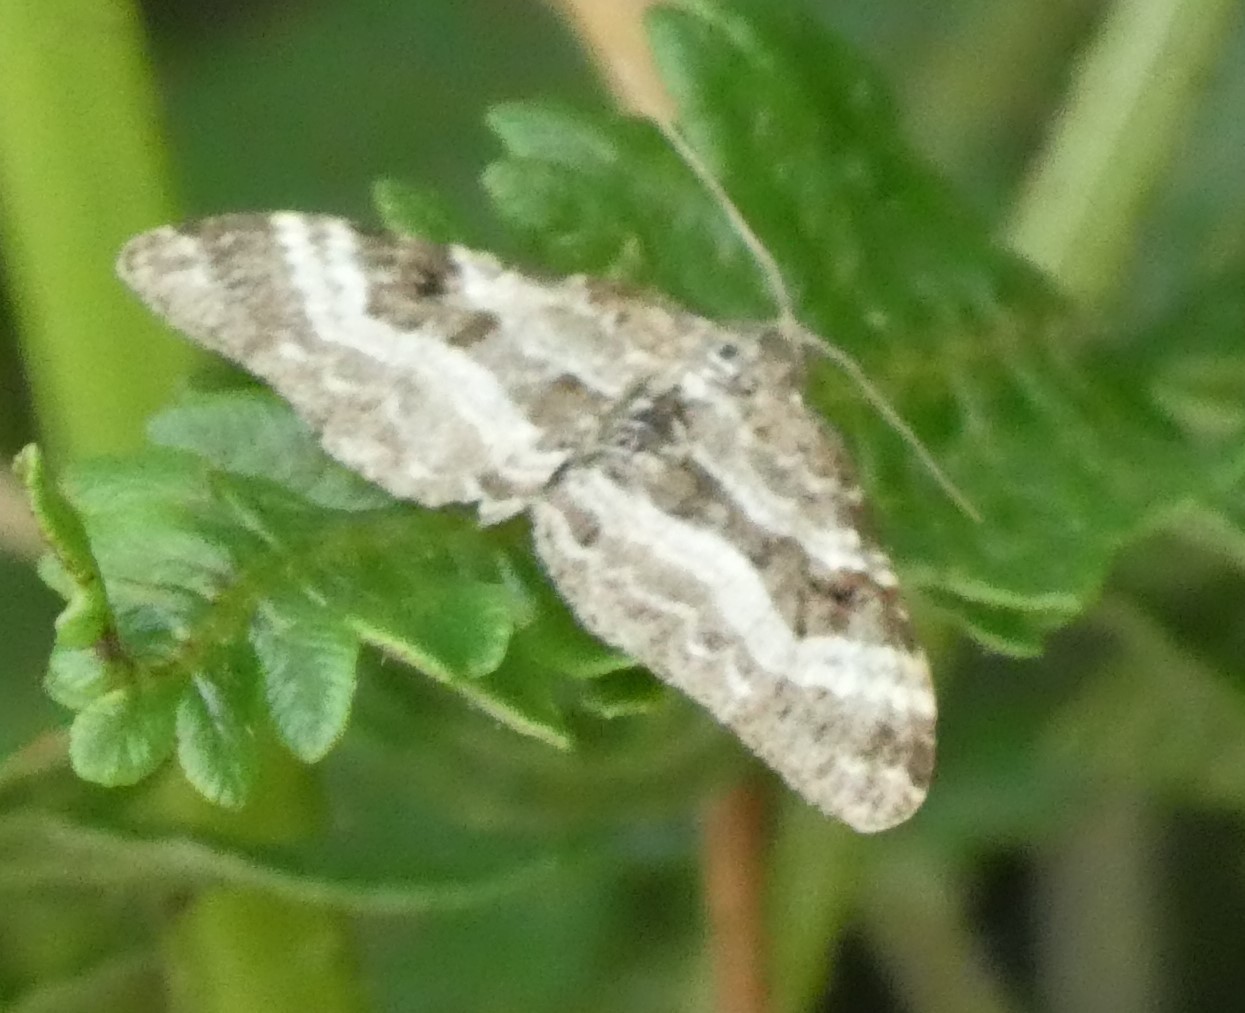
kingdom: Animalia
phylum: Arthropoda
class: Insecta
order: Lepidoptera
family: Geometridae
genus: Epirrhoe
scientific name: Epirrhoe alternata
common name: Common carpet
